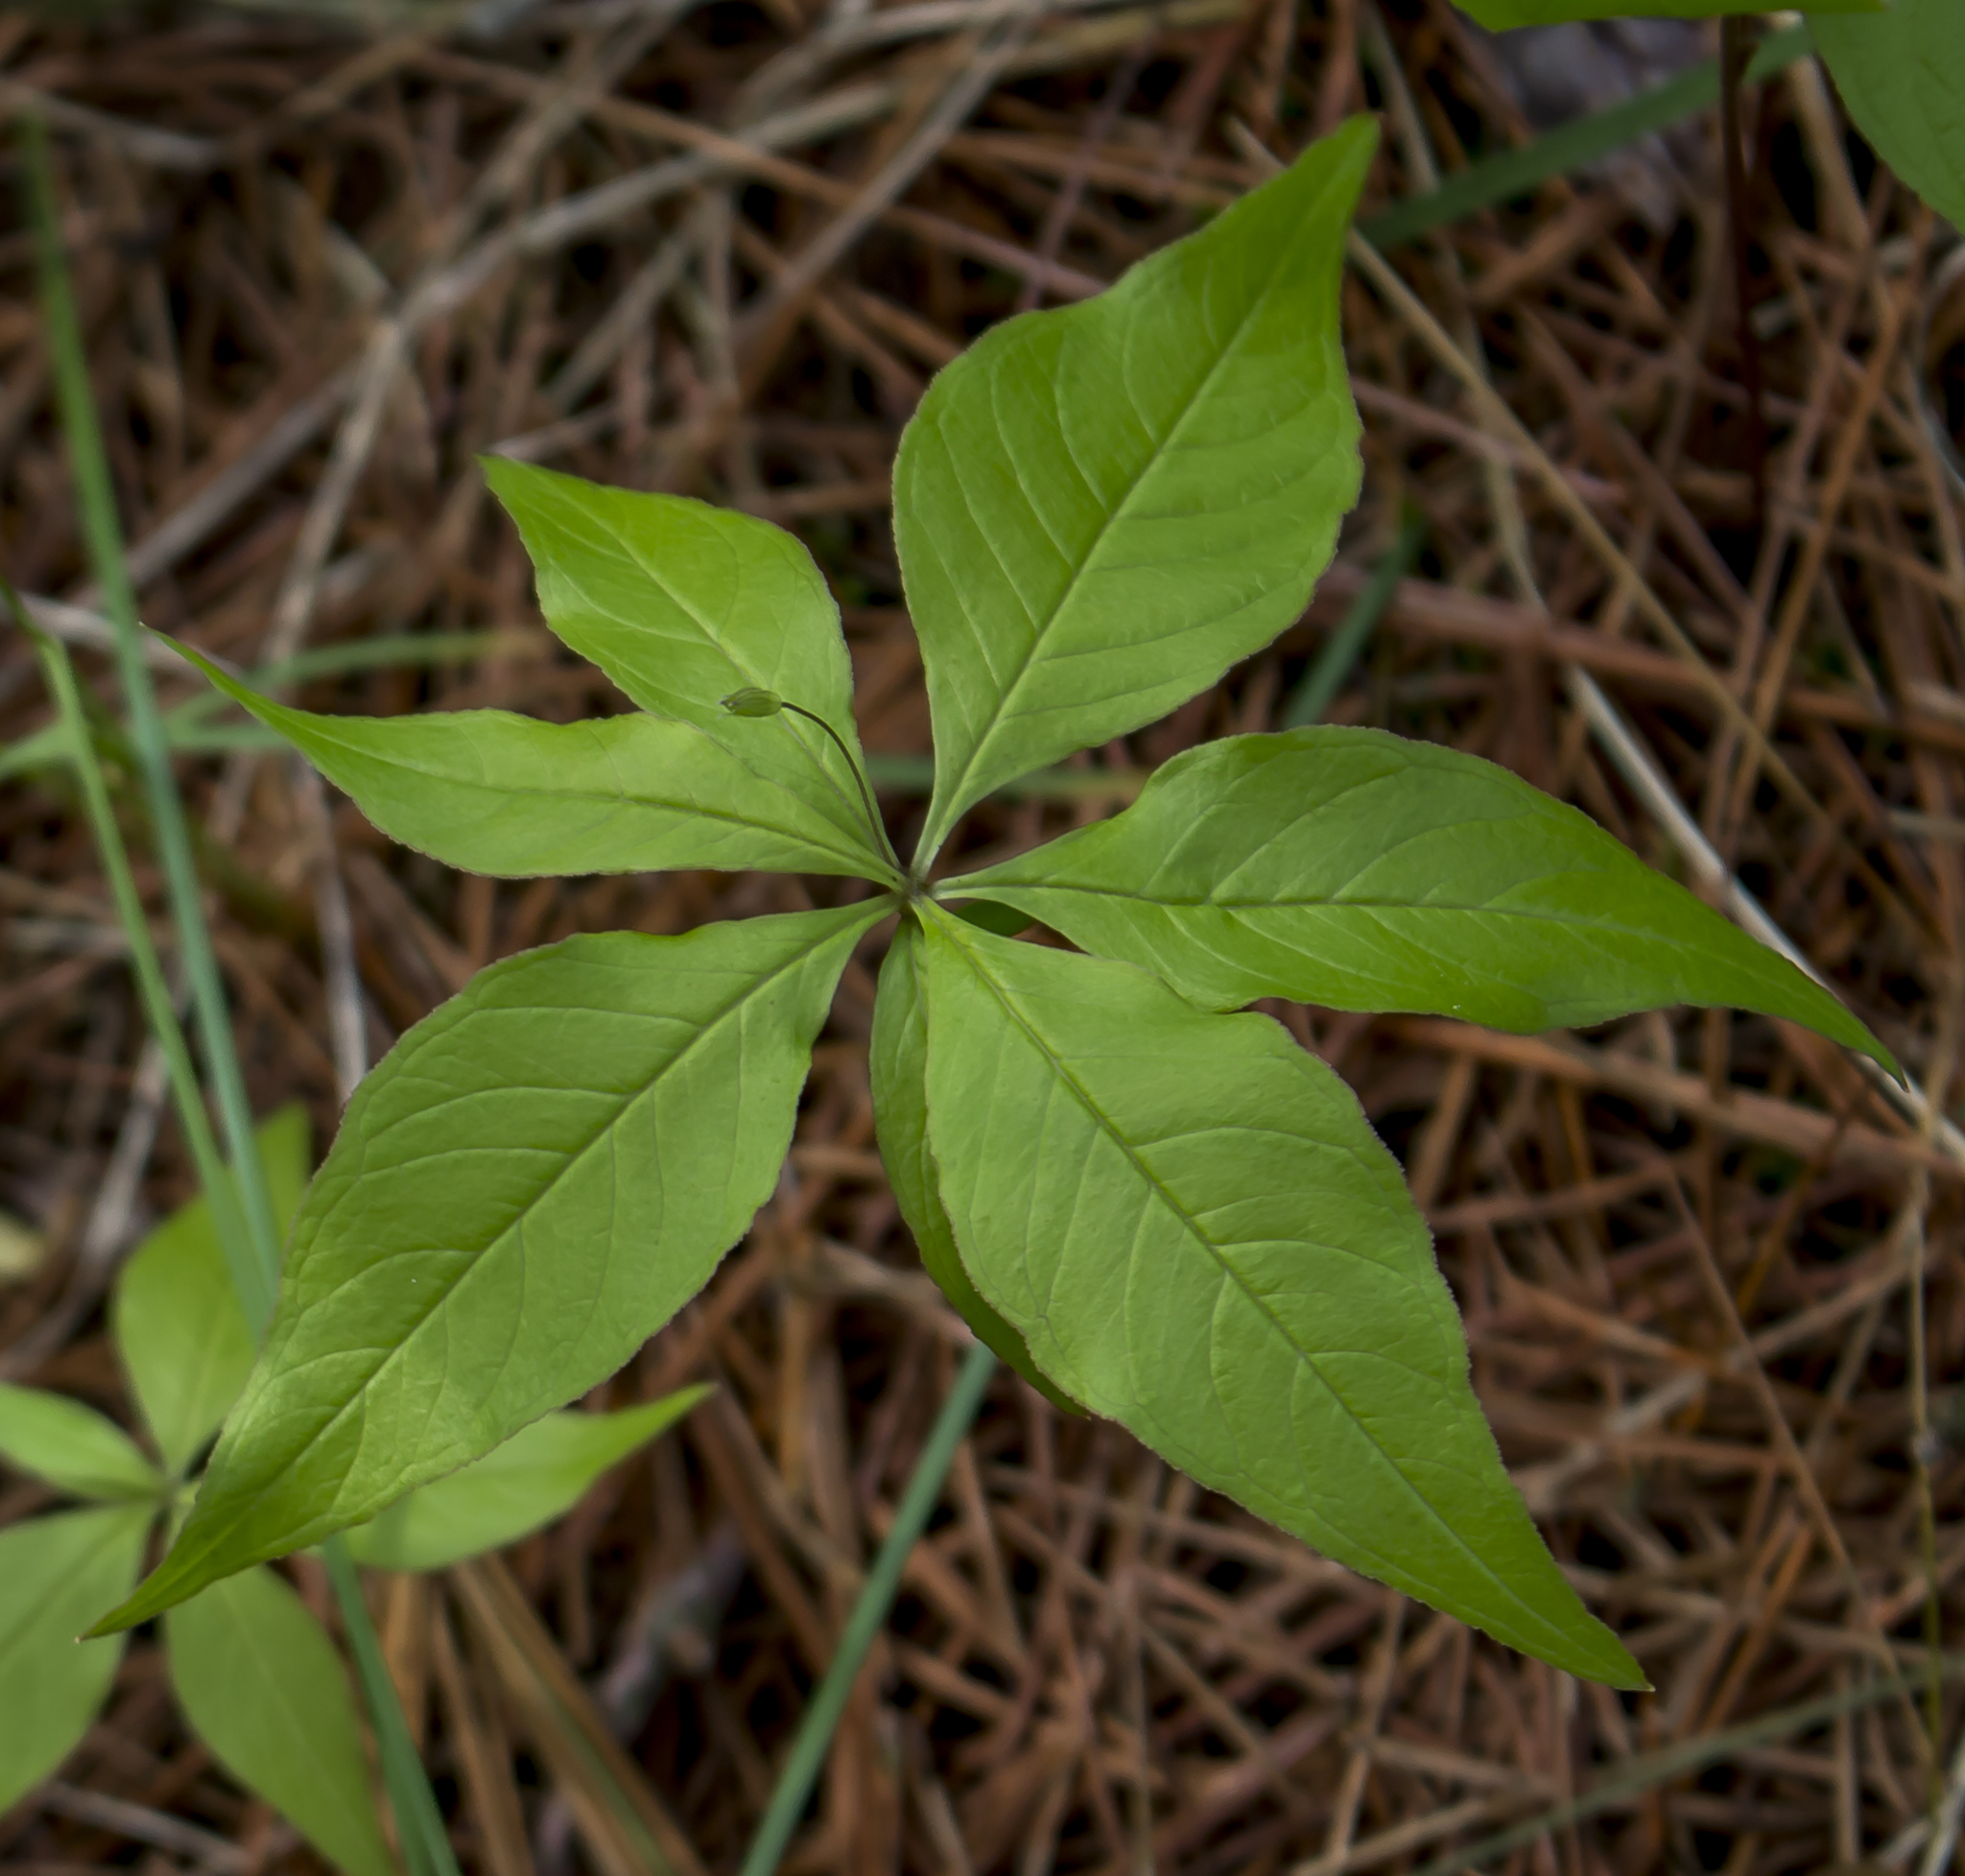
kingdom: Plantae
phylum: Tracheophyta
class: Magnoliopsida
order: Ericales
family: Primulaceae
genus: Lysimachia
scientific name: Lysimachia borealis
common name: American starflower
